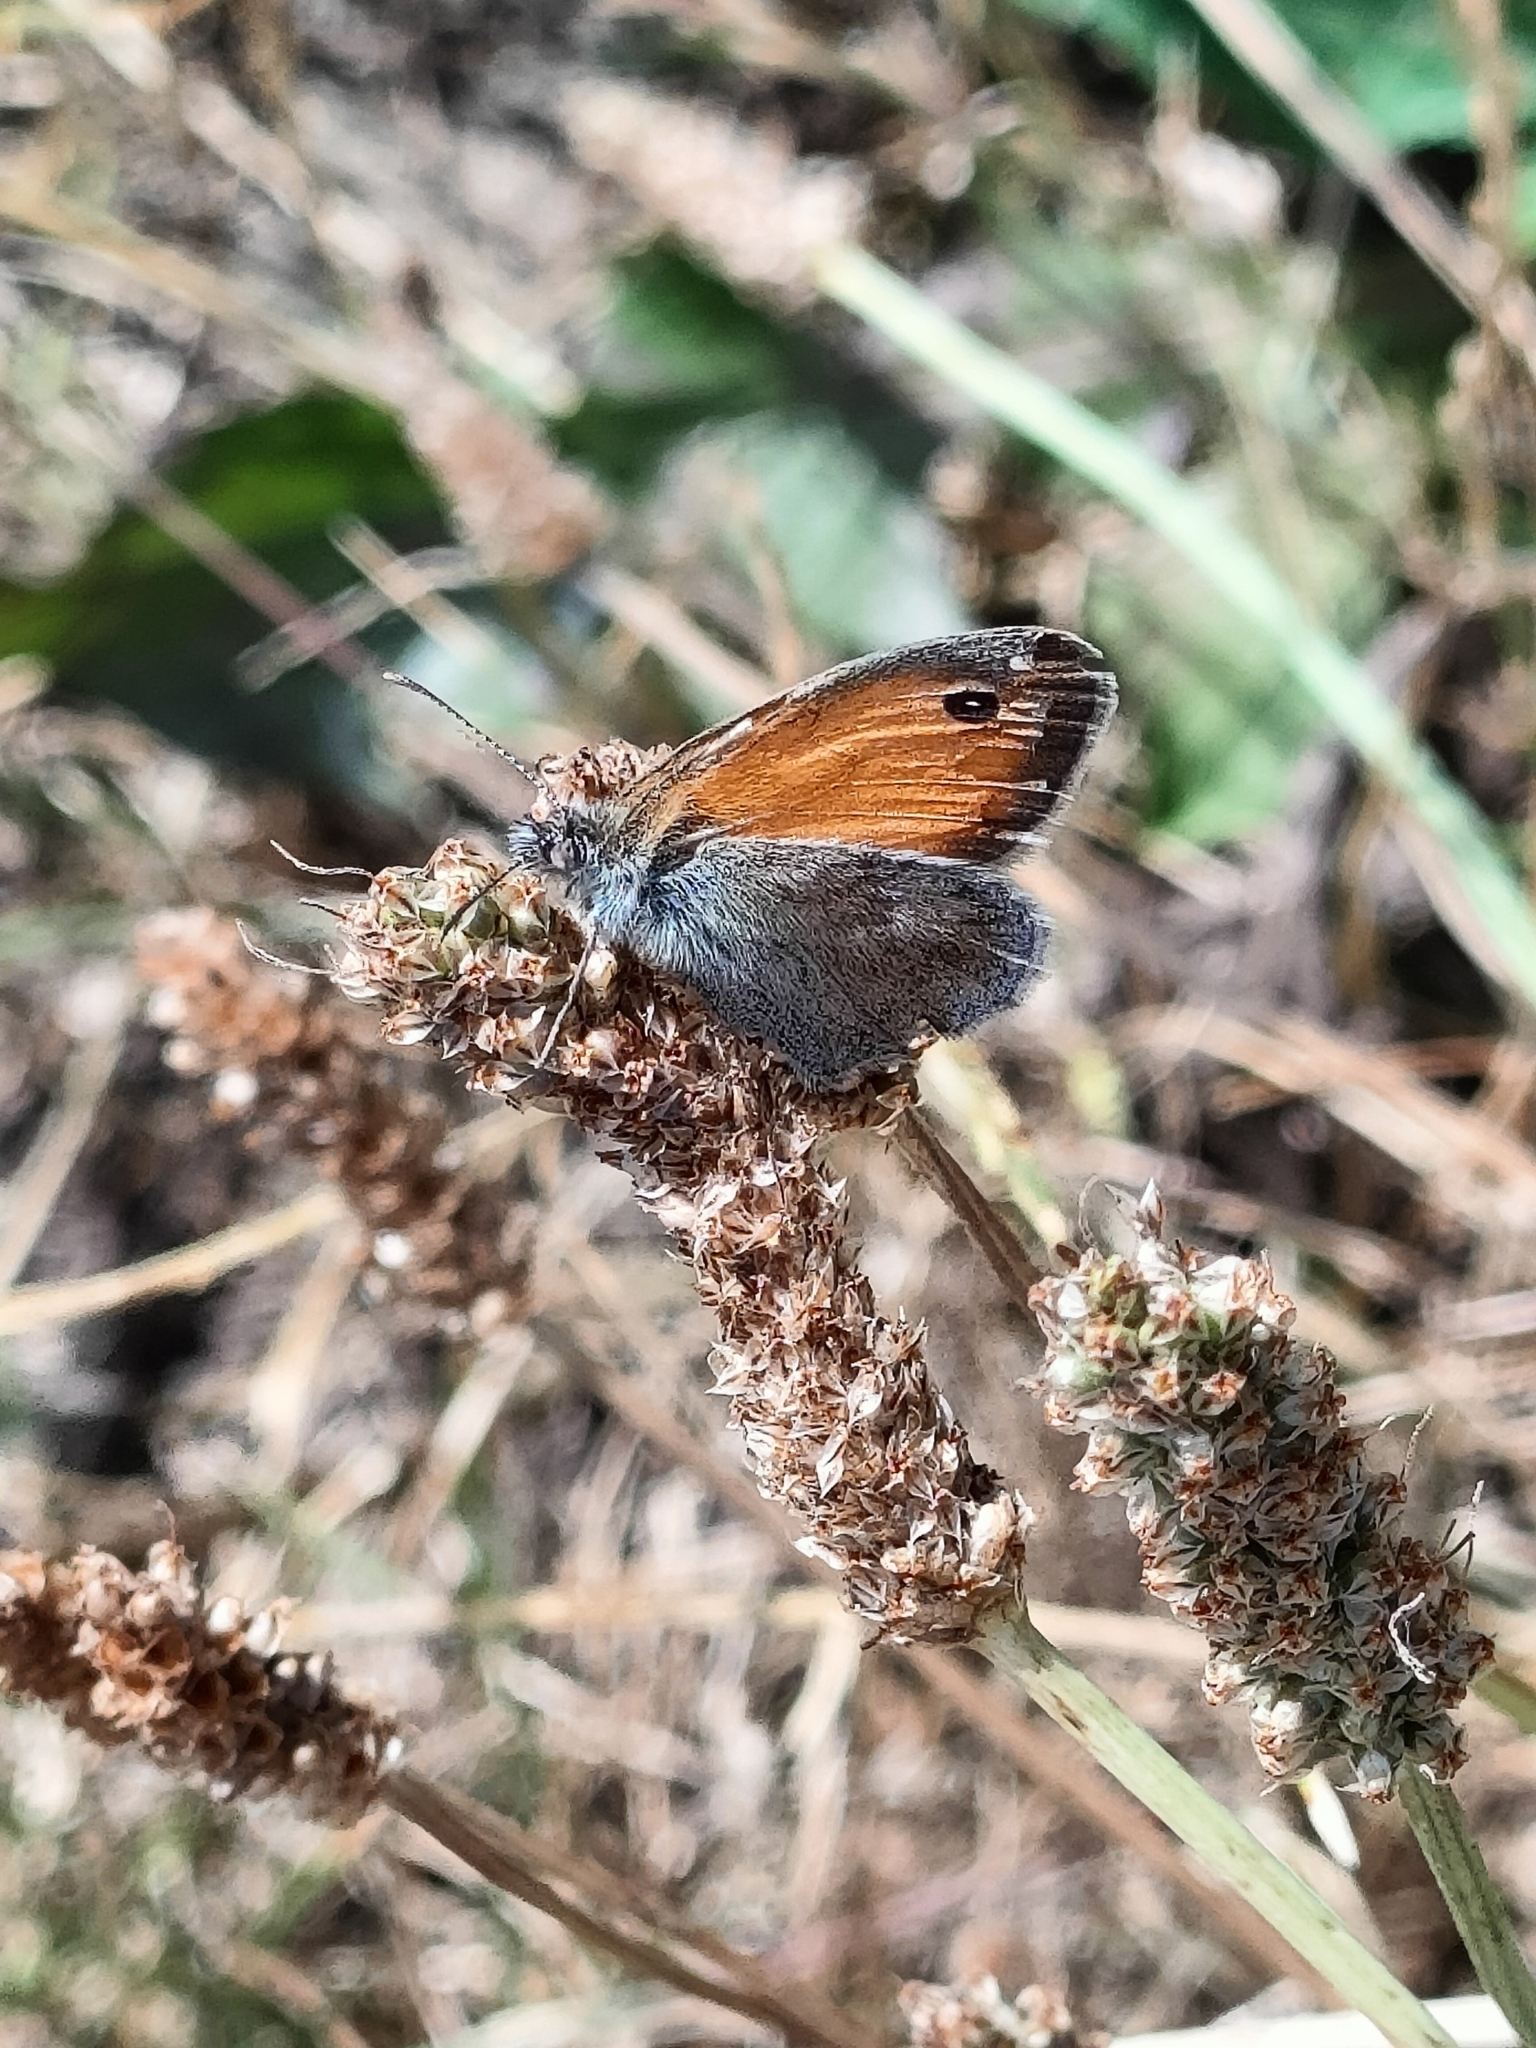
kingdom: Animalia
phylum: Arthropoda
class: Insecta
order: Lepidoptera
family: Nymphalidae
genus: Coenonympha
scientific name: Coenonympha pamphilus
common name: Small heath
